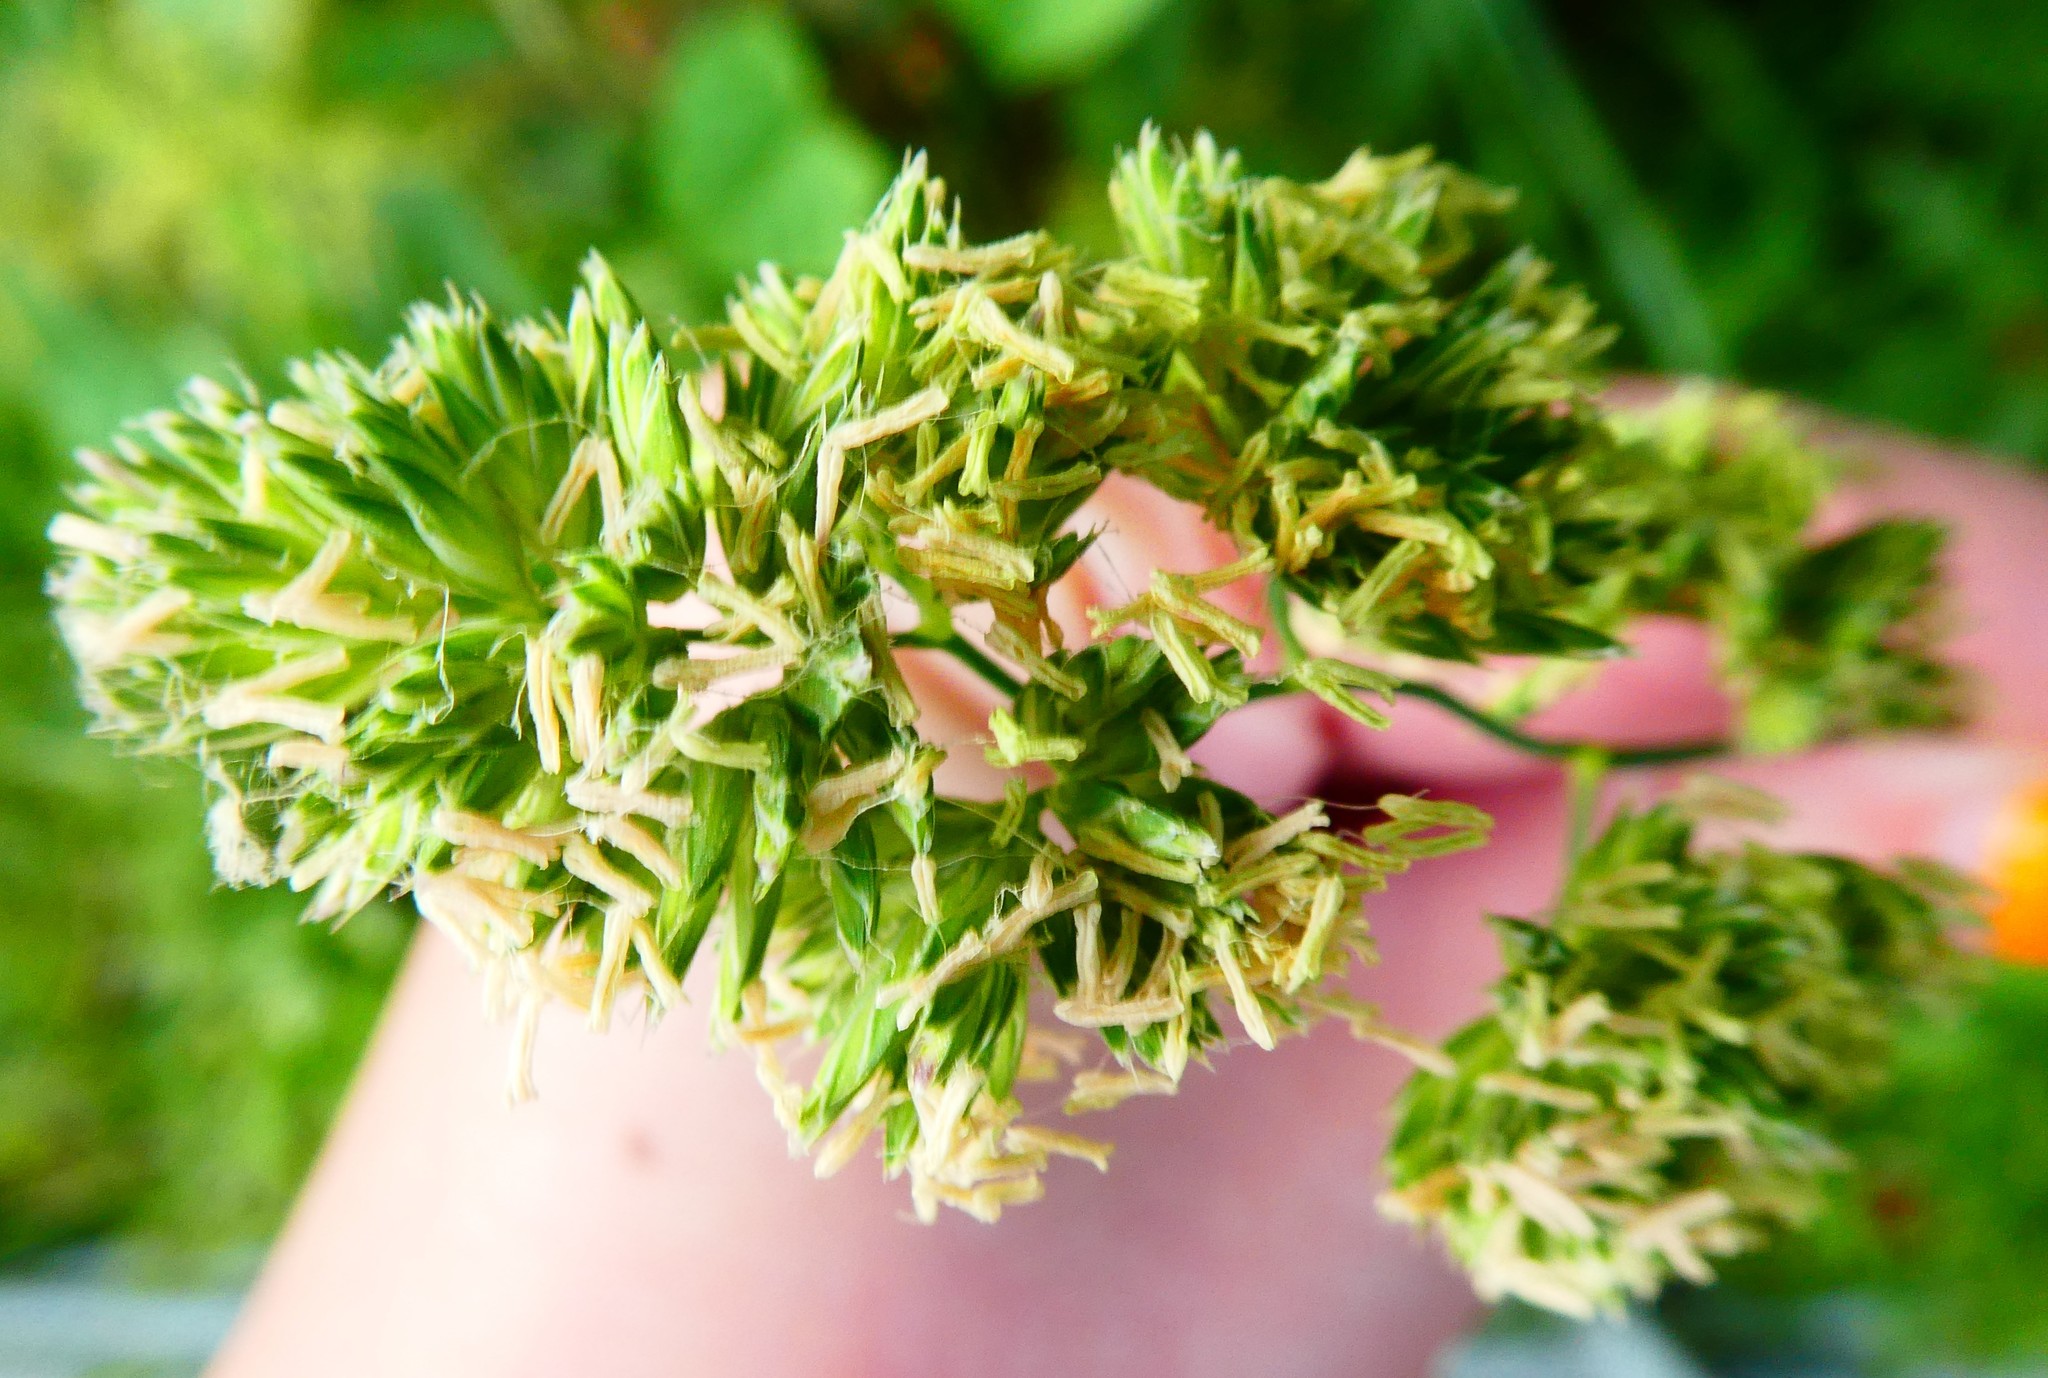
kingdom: Plantae
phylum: Tracheophyta
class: Liliopsida
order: Poales
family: Poaceae
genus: Dactylis
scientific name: Dactylis glomerata
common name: Orchardgrass
